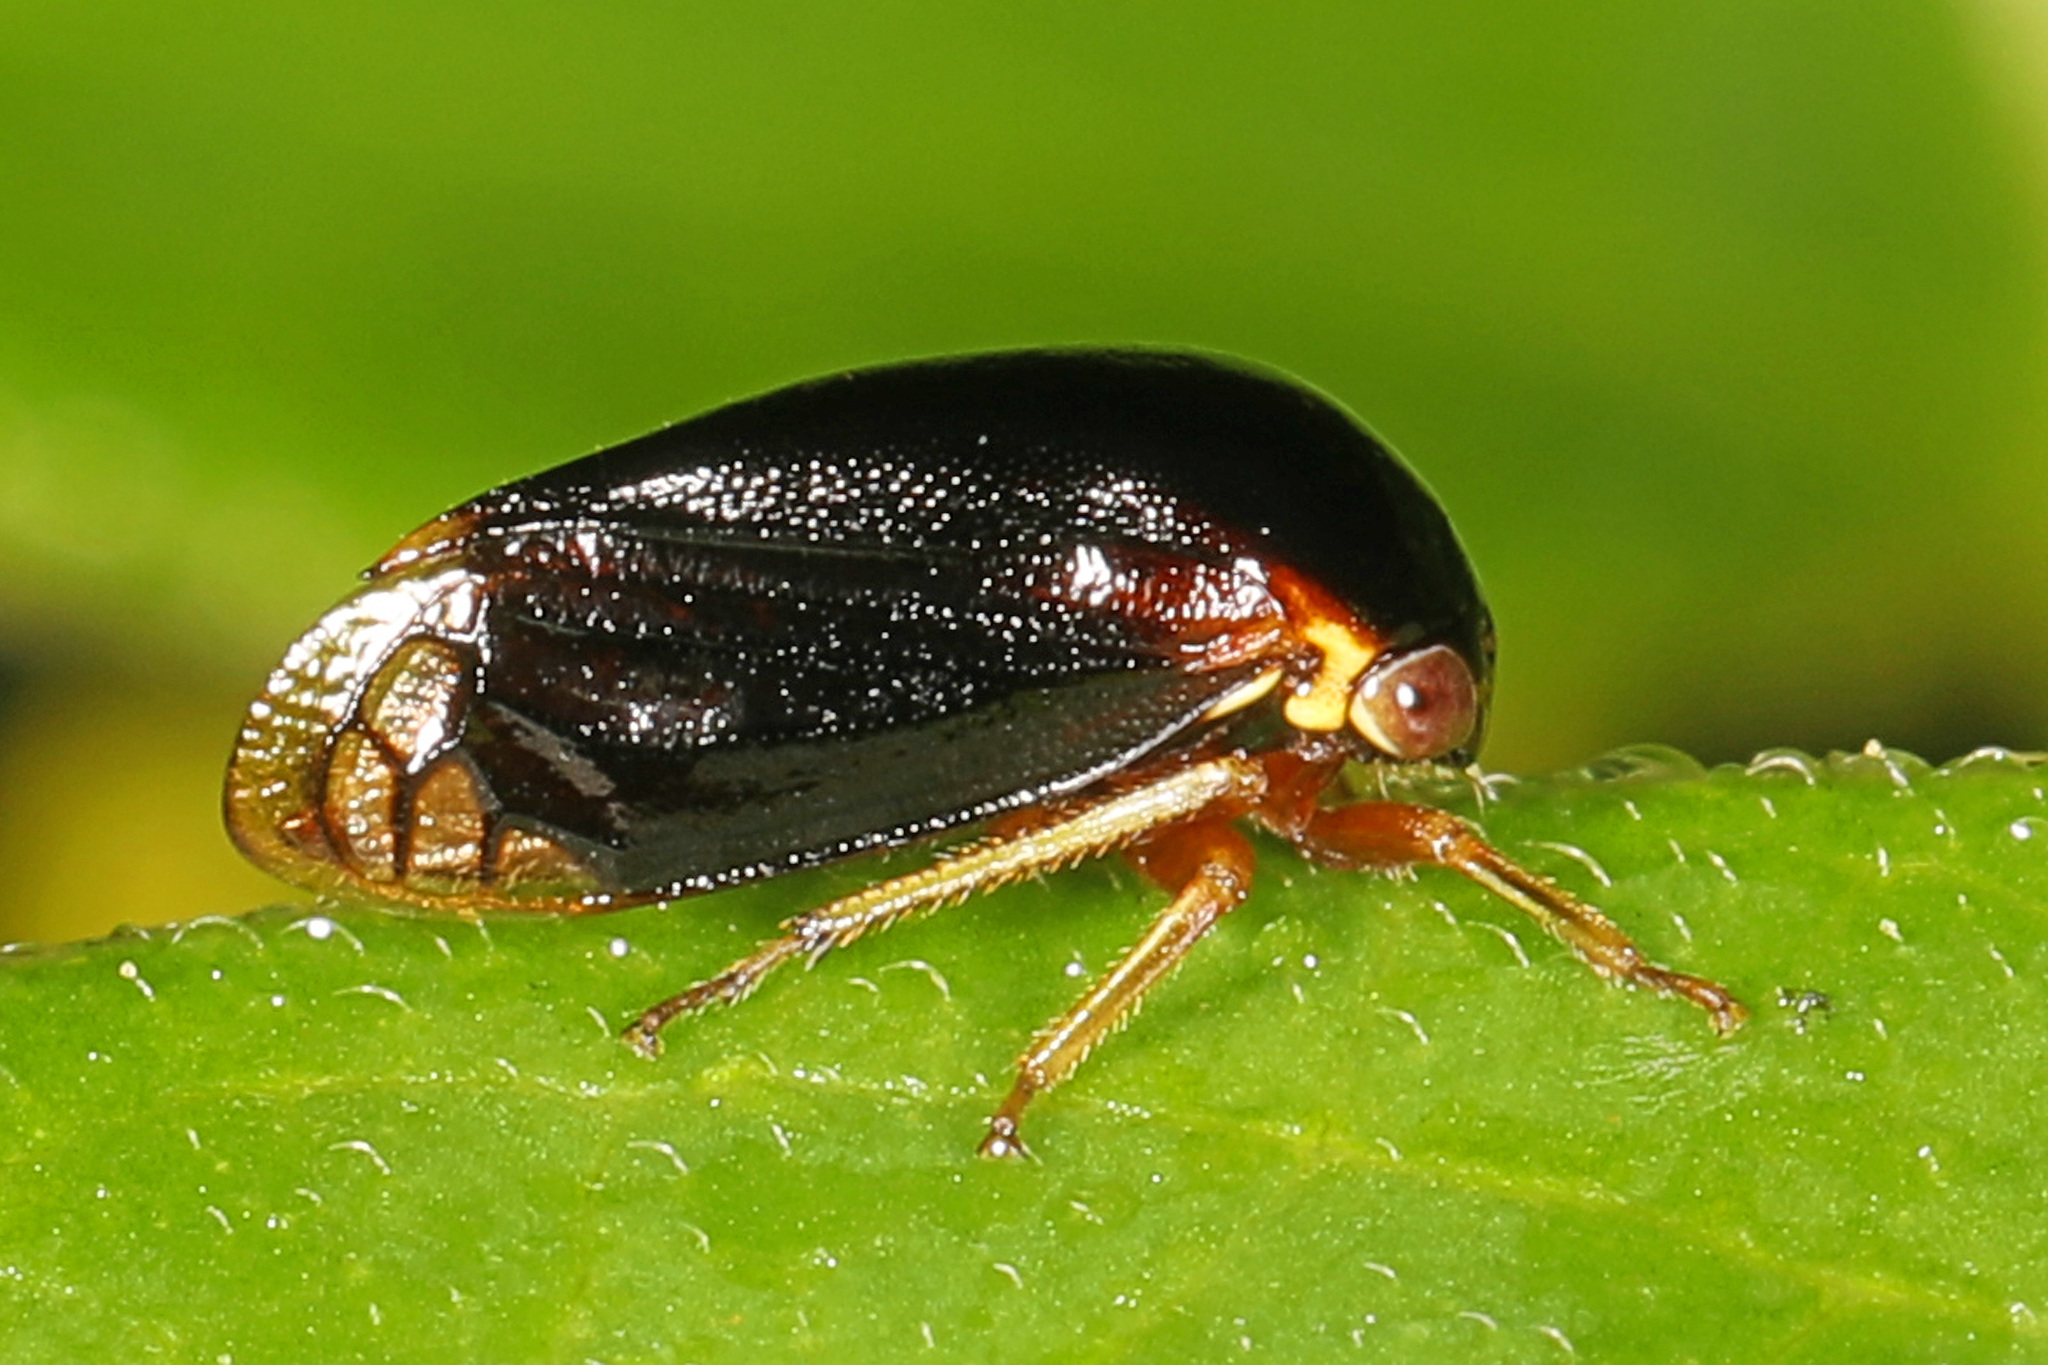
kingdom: Animalia
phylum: Arthropoda
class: Insecta
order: Hemiptera
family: Membracidae
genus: Acutalis
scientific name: Acutalis tartarea
